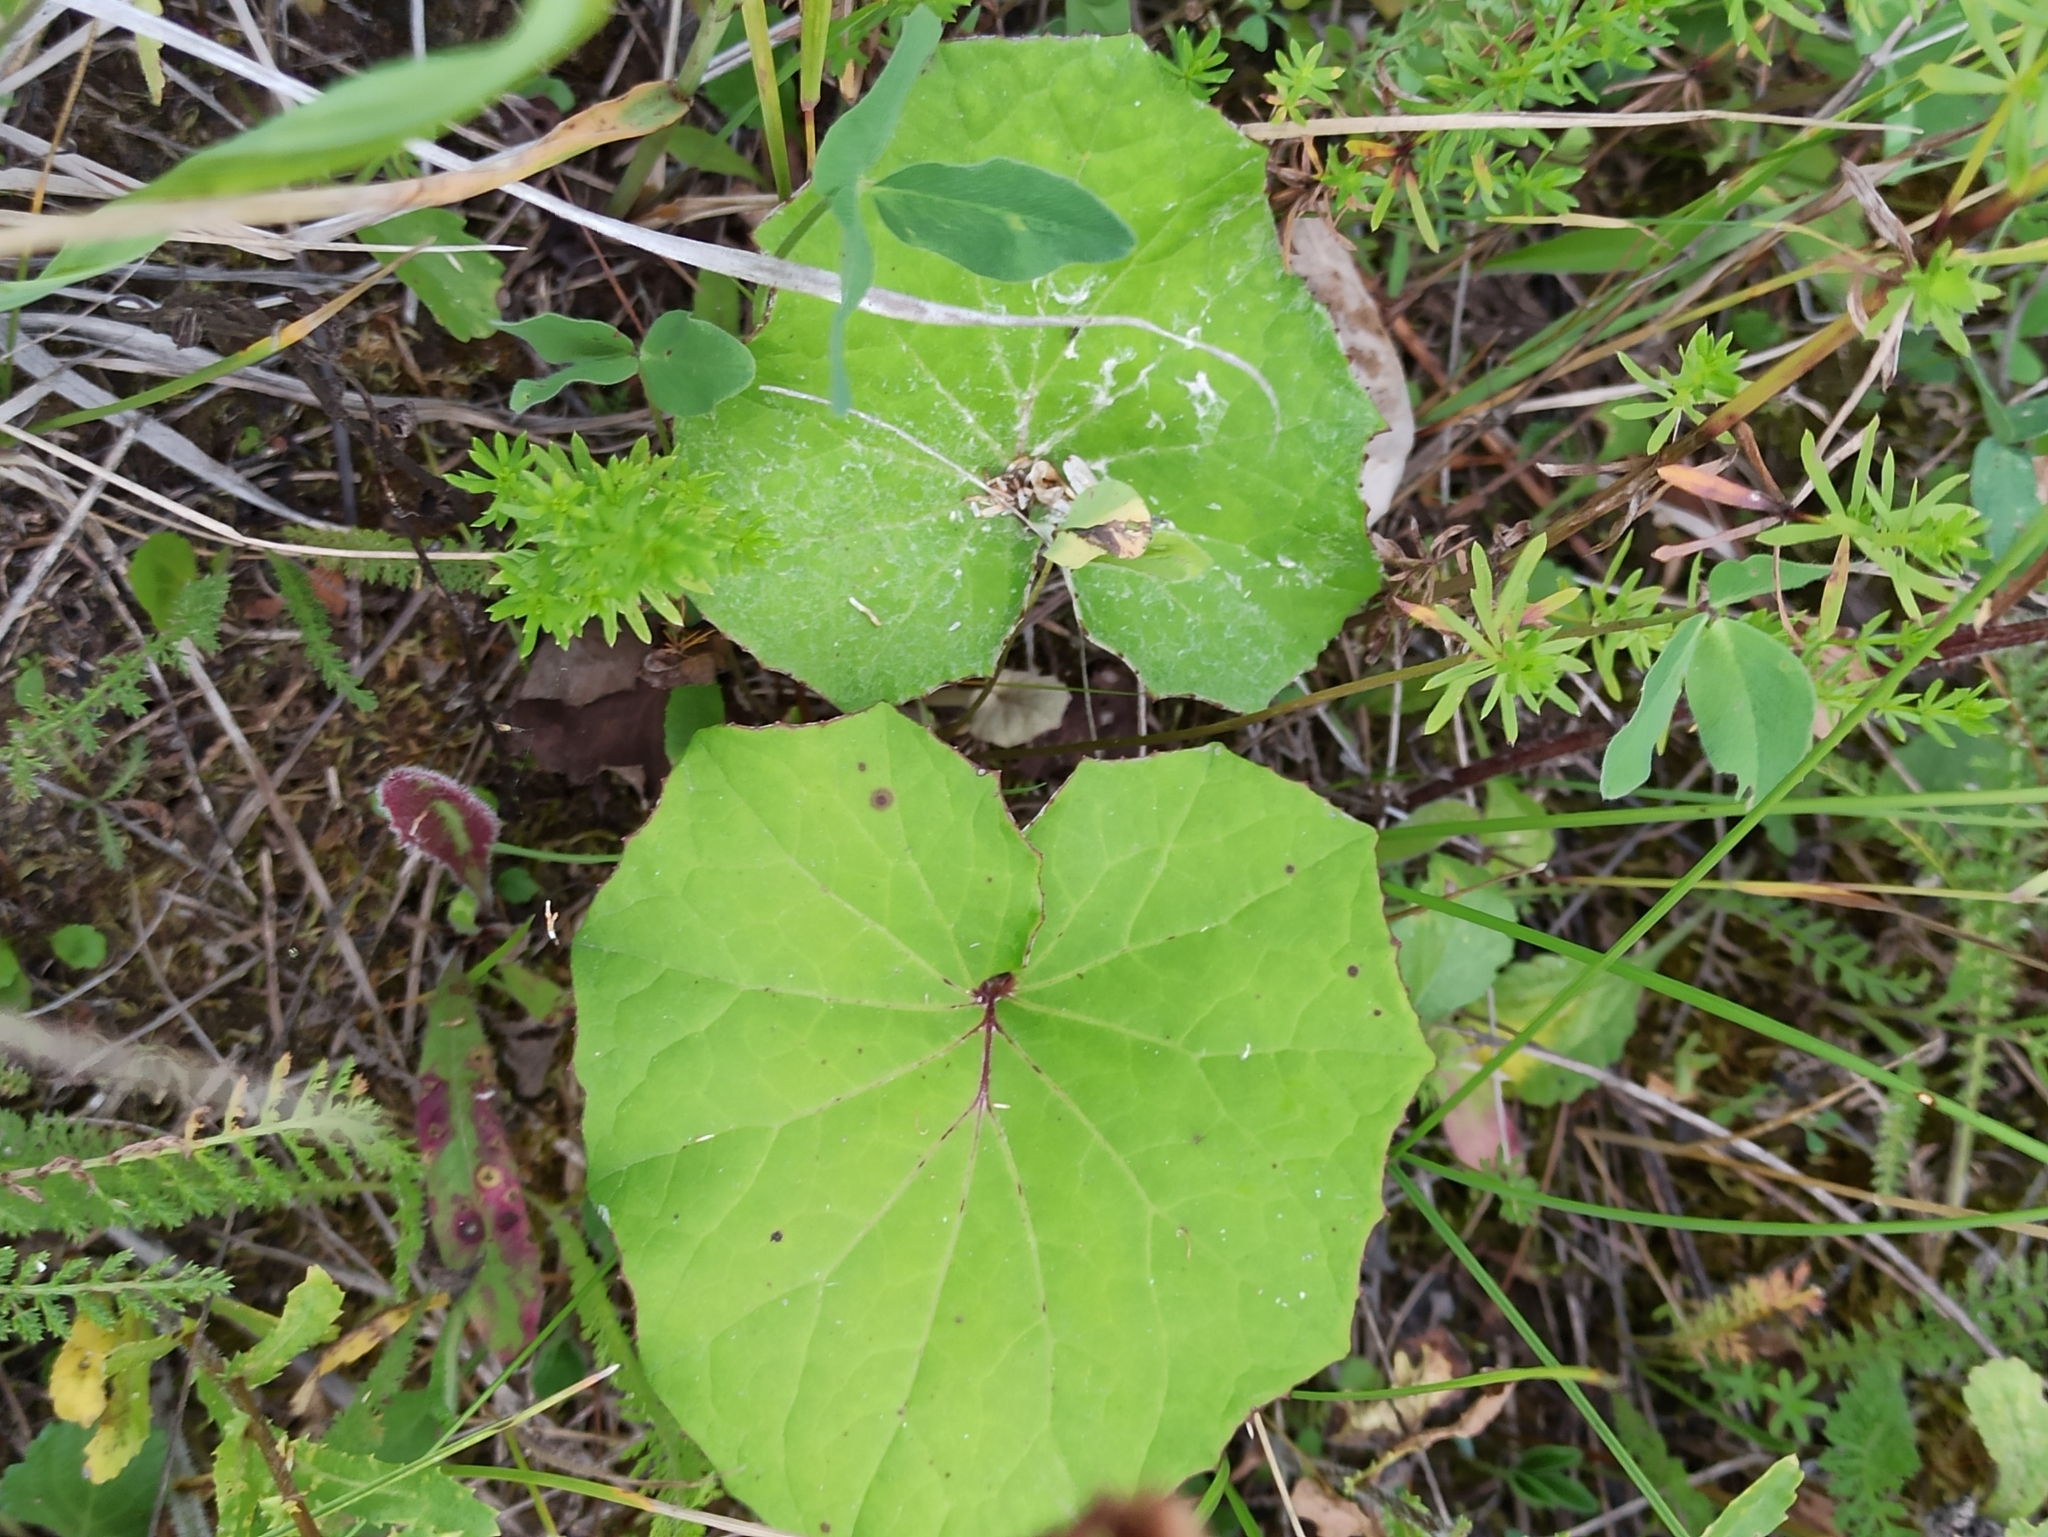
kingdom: Plantae
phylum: Tracheophyta
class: Magnoliopsida
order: Asterales
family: Asteraceae
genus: Tussilago
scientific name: Tussilago farfara
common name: Coltsfoot
